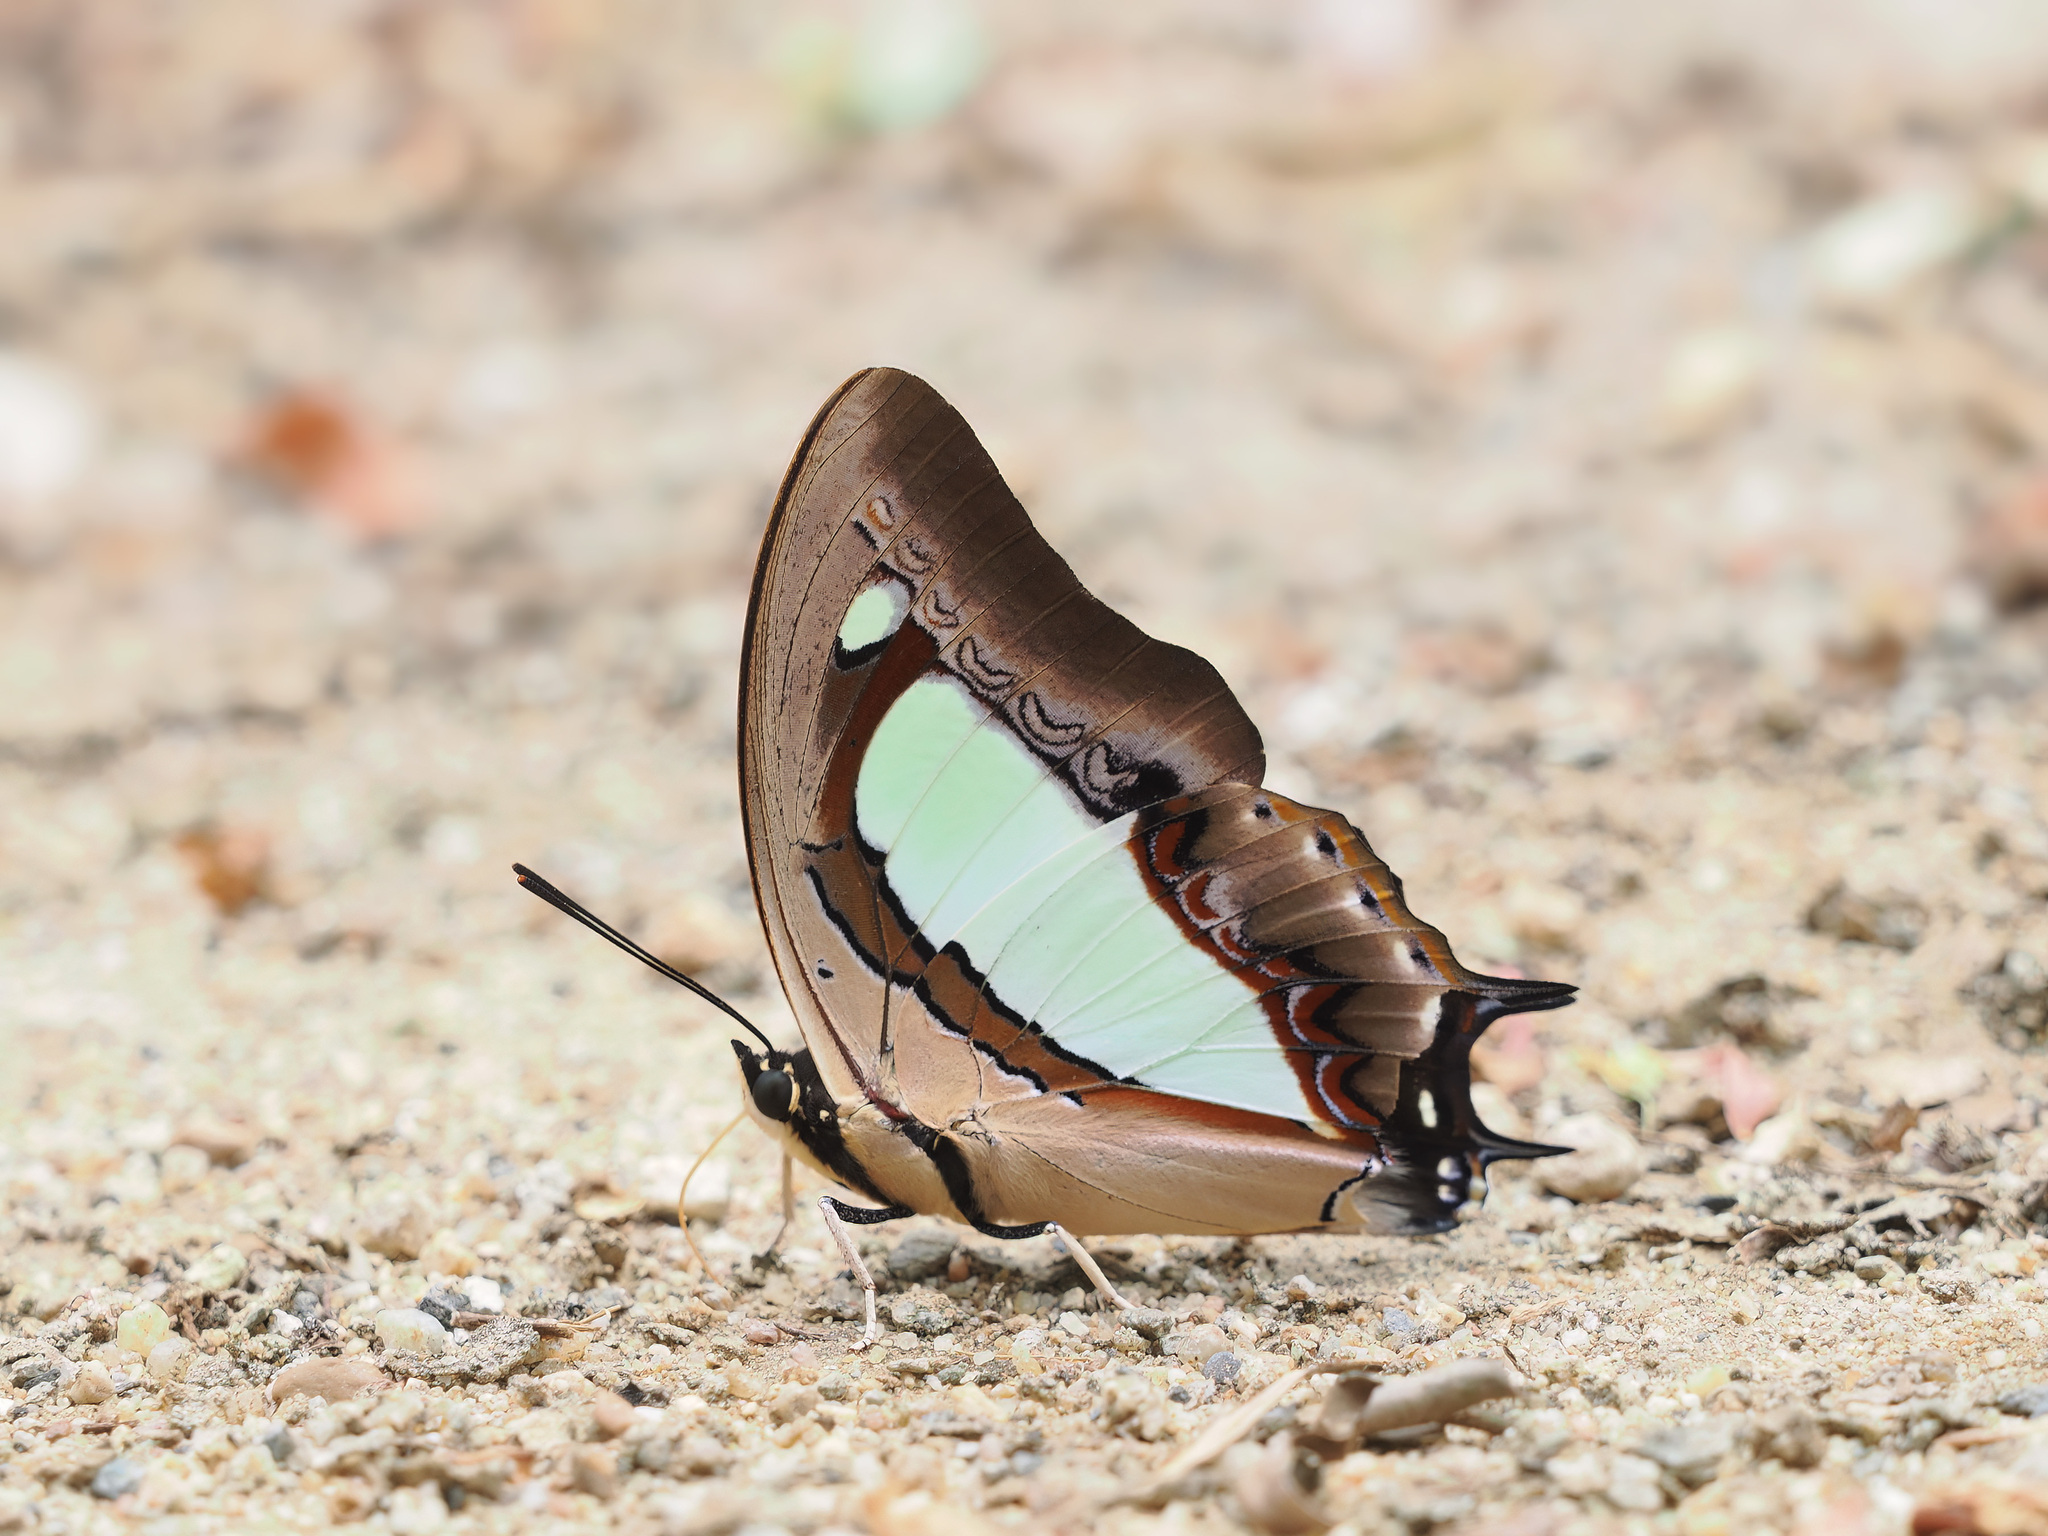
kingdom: Animalia
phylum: Arthropoda
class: Insecta
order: Lepidoptera
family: Nymphalidae
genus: Polyura
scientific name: Polyura arja
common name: Pallid nawab
